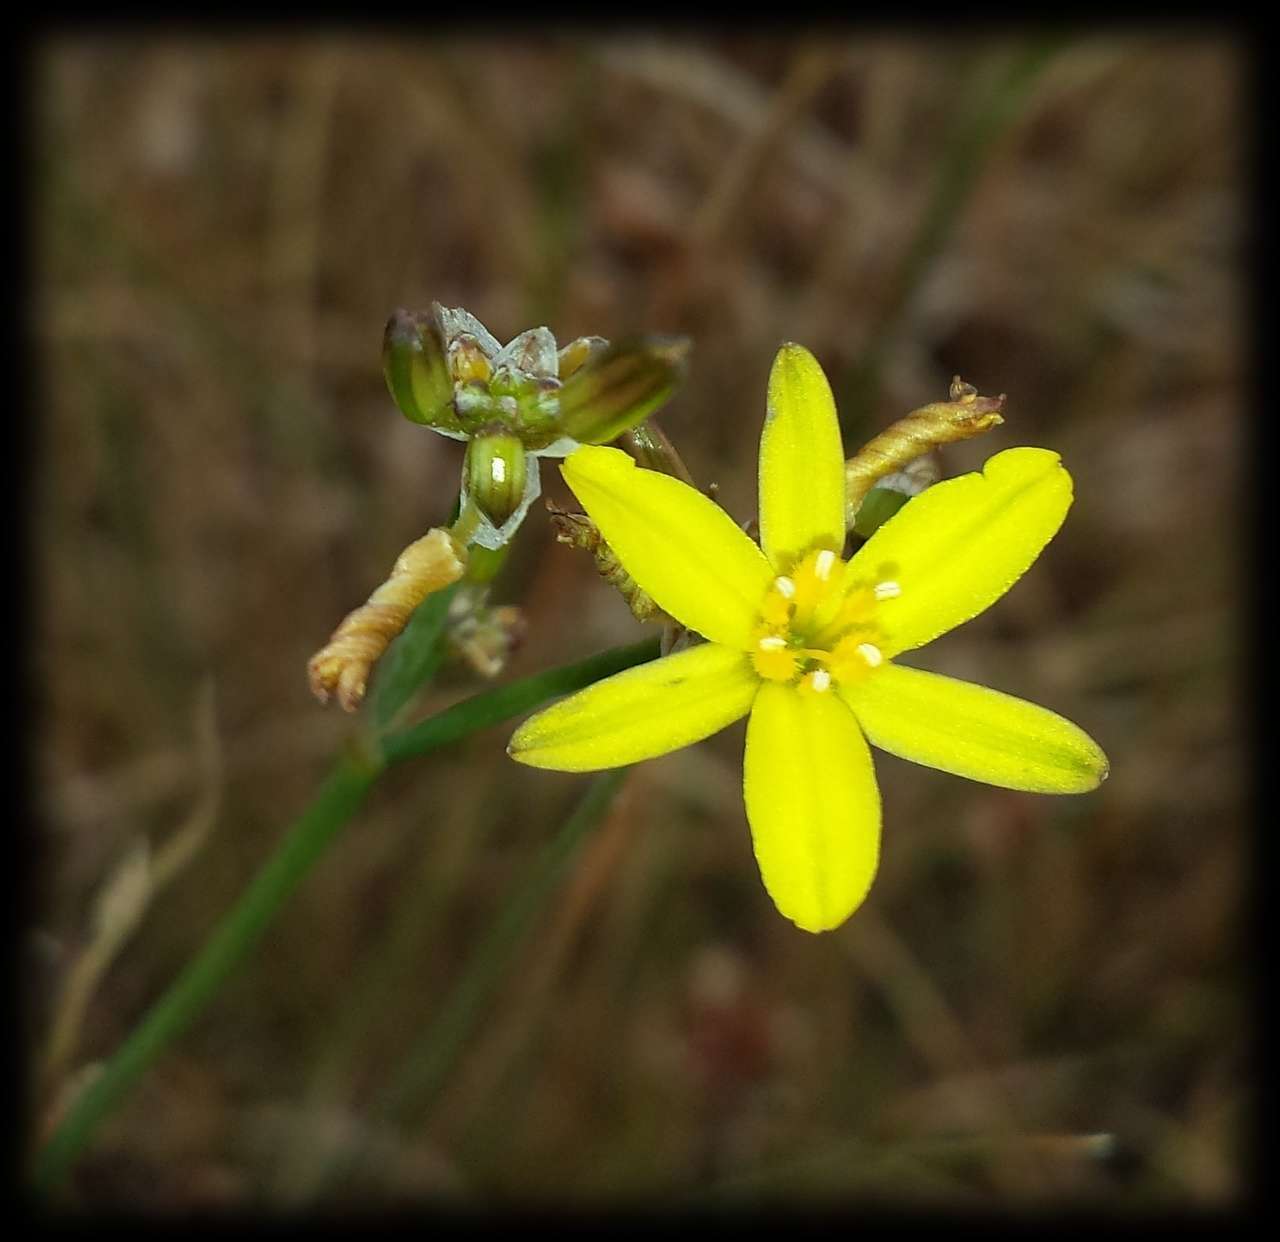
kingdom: Plantae
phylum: Tracheophyta
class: Liliopsida
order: Asparagales
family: Asphodelaceae
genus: Tricoryne
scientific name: Tricoryne elatior
